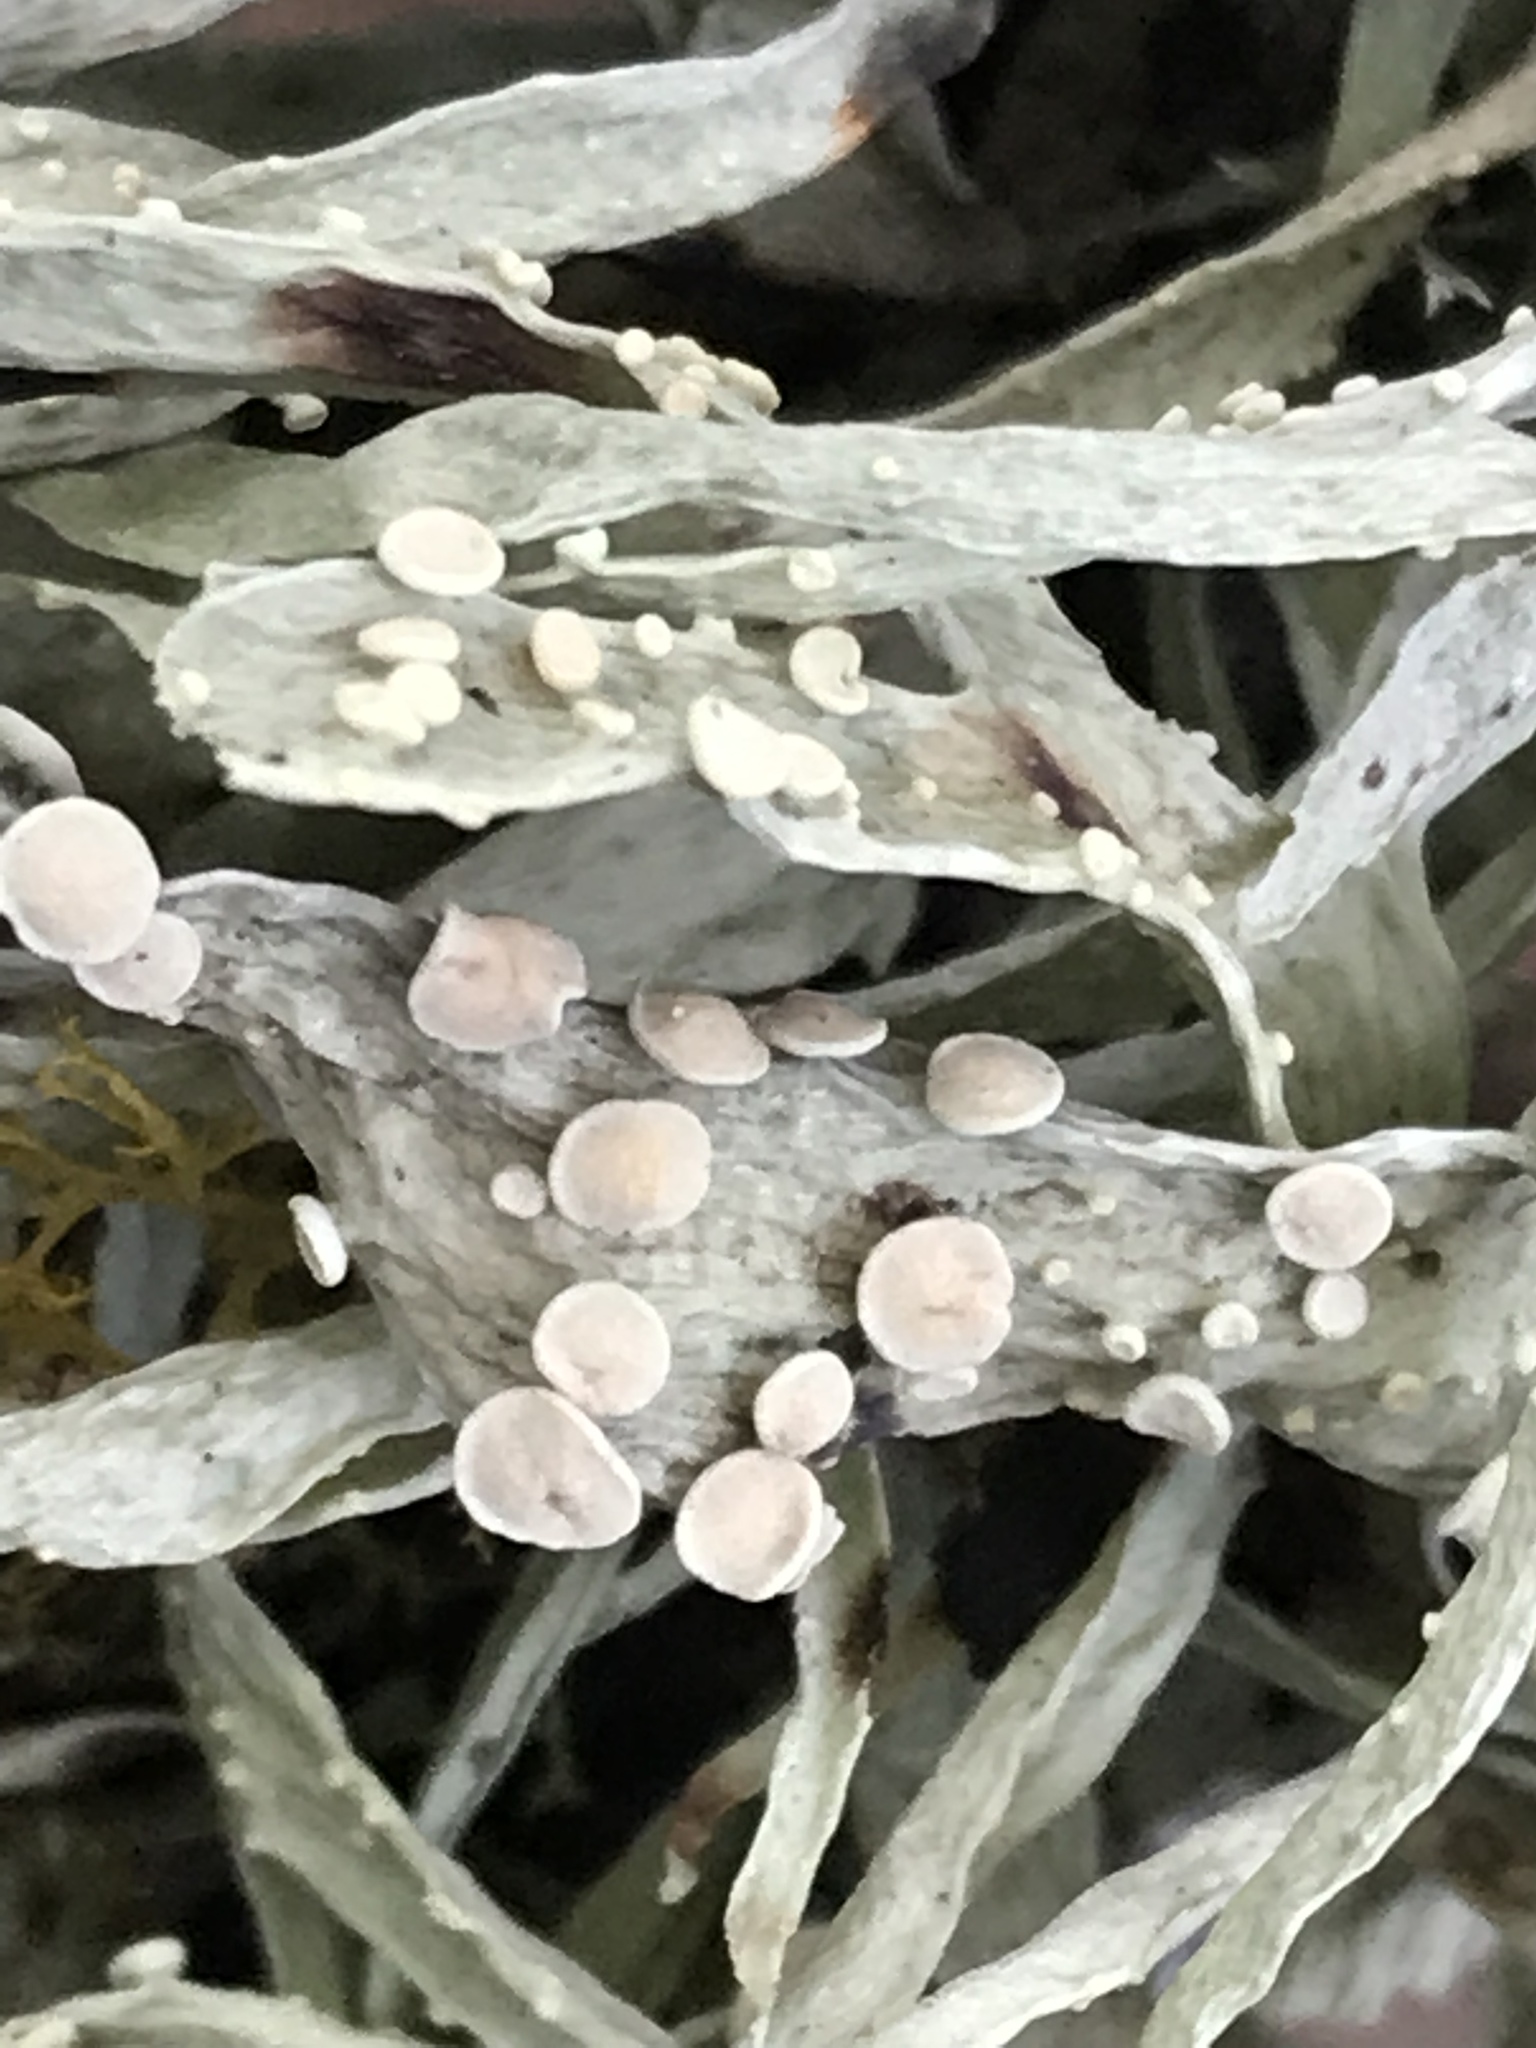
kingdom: Fungi
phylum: Ascomycota
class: Lecanoromycetes
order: Lecanorales
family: Ramalinaceae
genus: Ramalina
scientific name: Ramalina celastri
